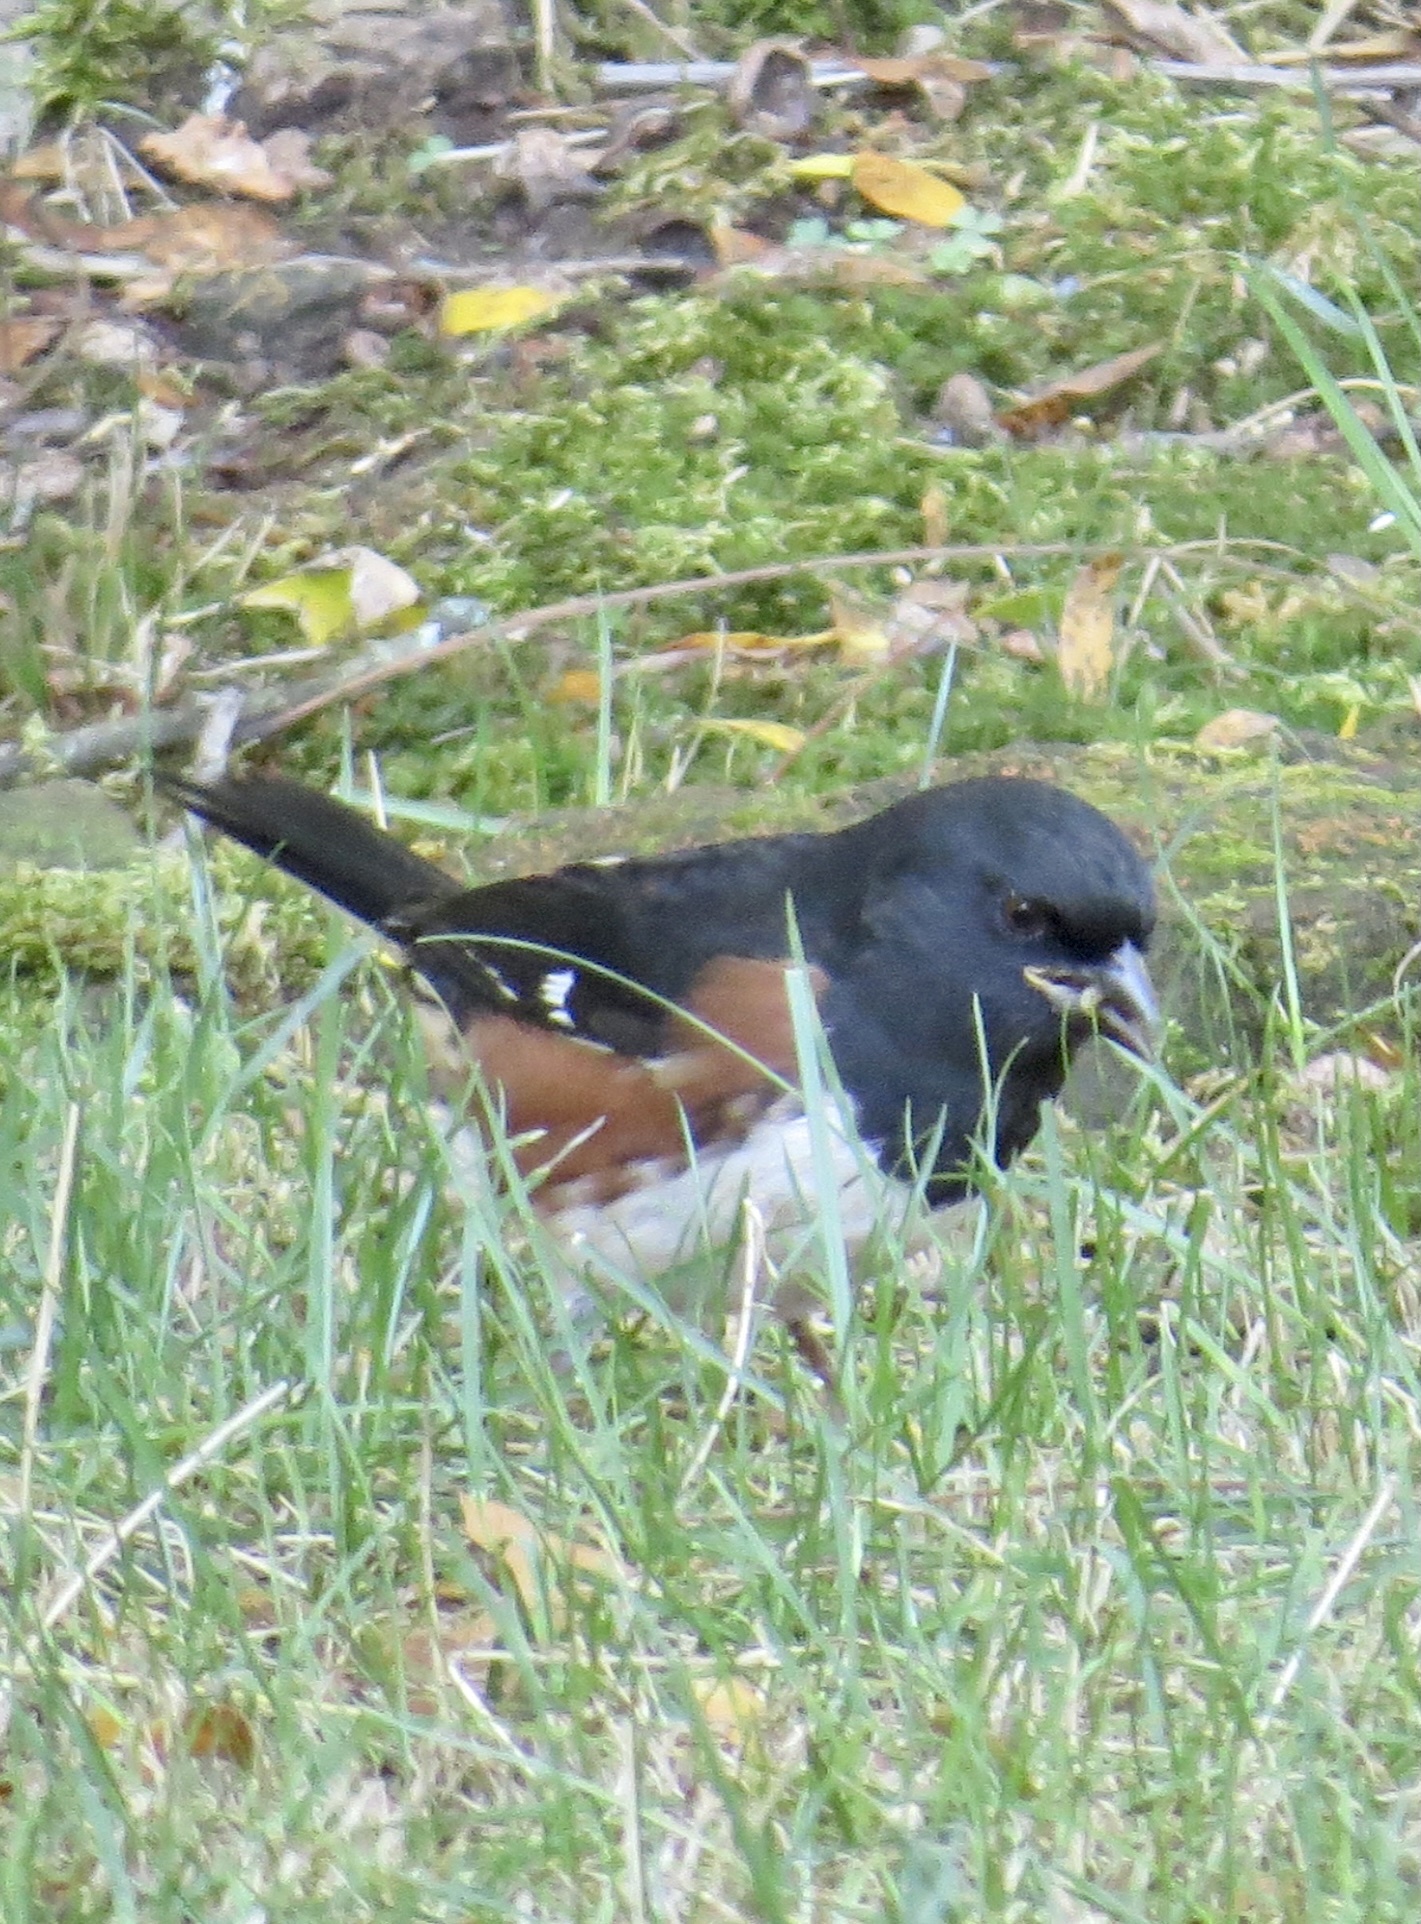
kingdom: Animalia
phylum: Chordata
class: Aves
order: Passeriformes
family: Passerellidae
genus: Pipilo
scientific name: Pipilo erythrophthalmus
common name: Eastern towhee
